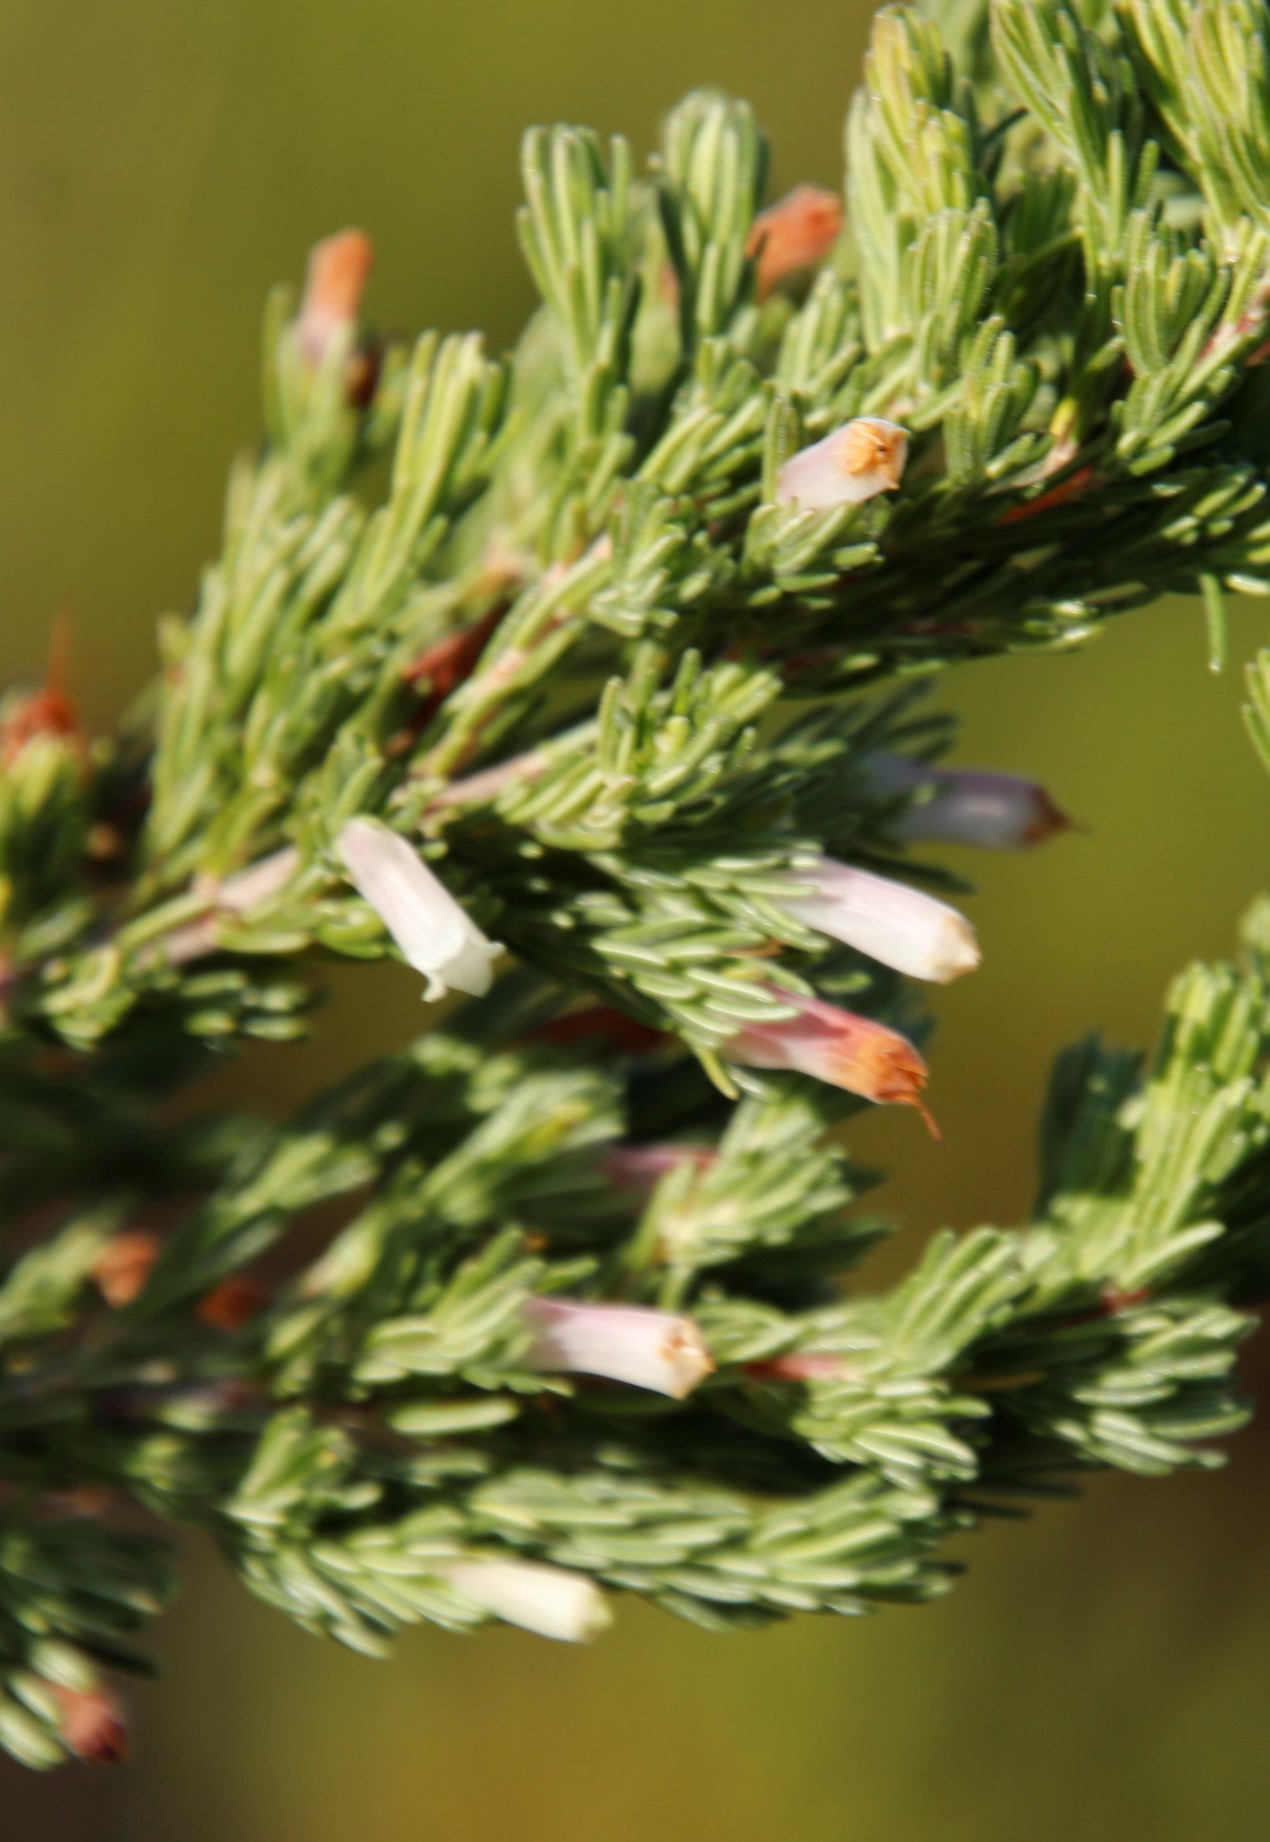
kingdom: Plantae
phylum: Tracheophyta
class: Magnoliopsida
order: Ericales
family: Ericaceae
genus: Erica
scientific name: Erica fontana
